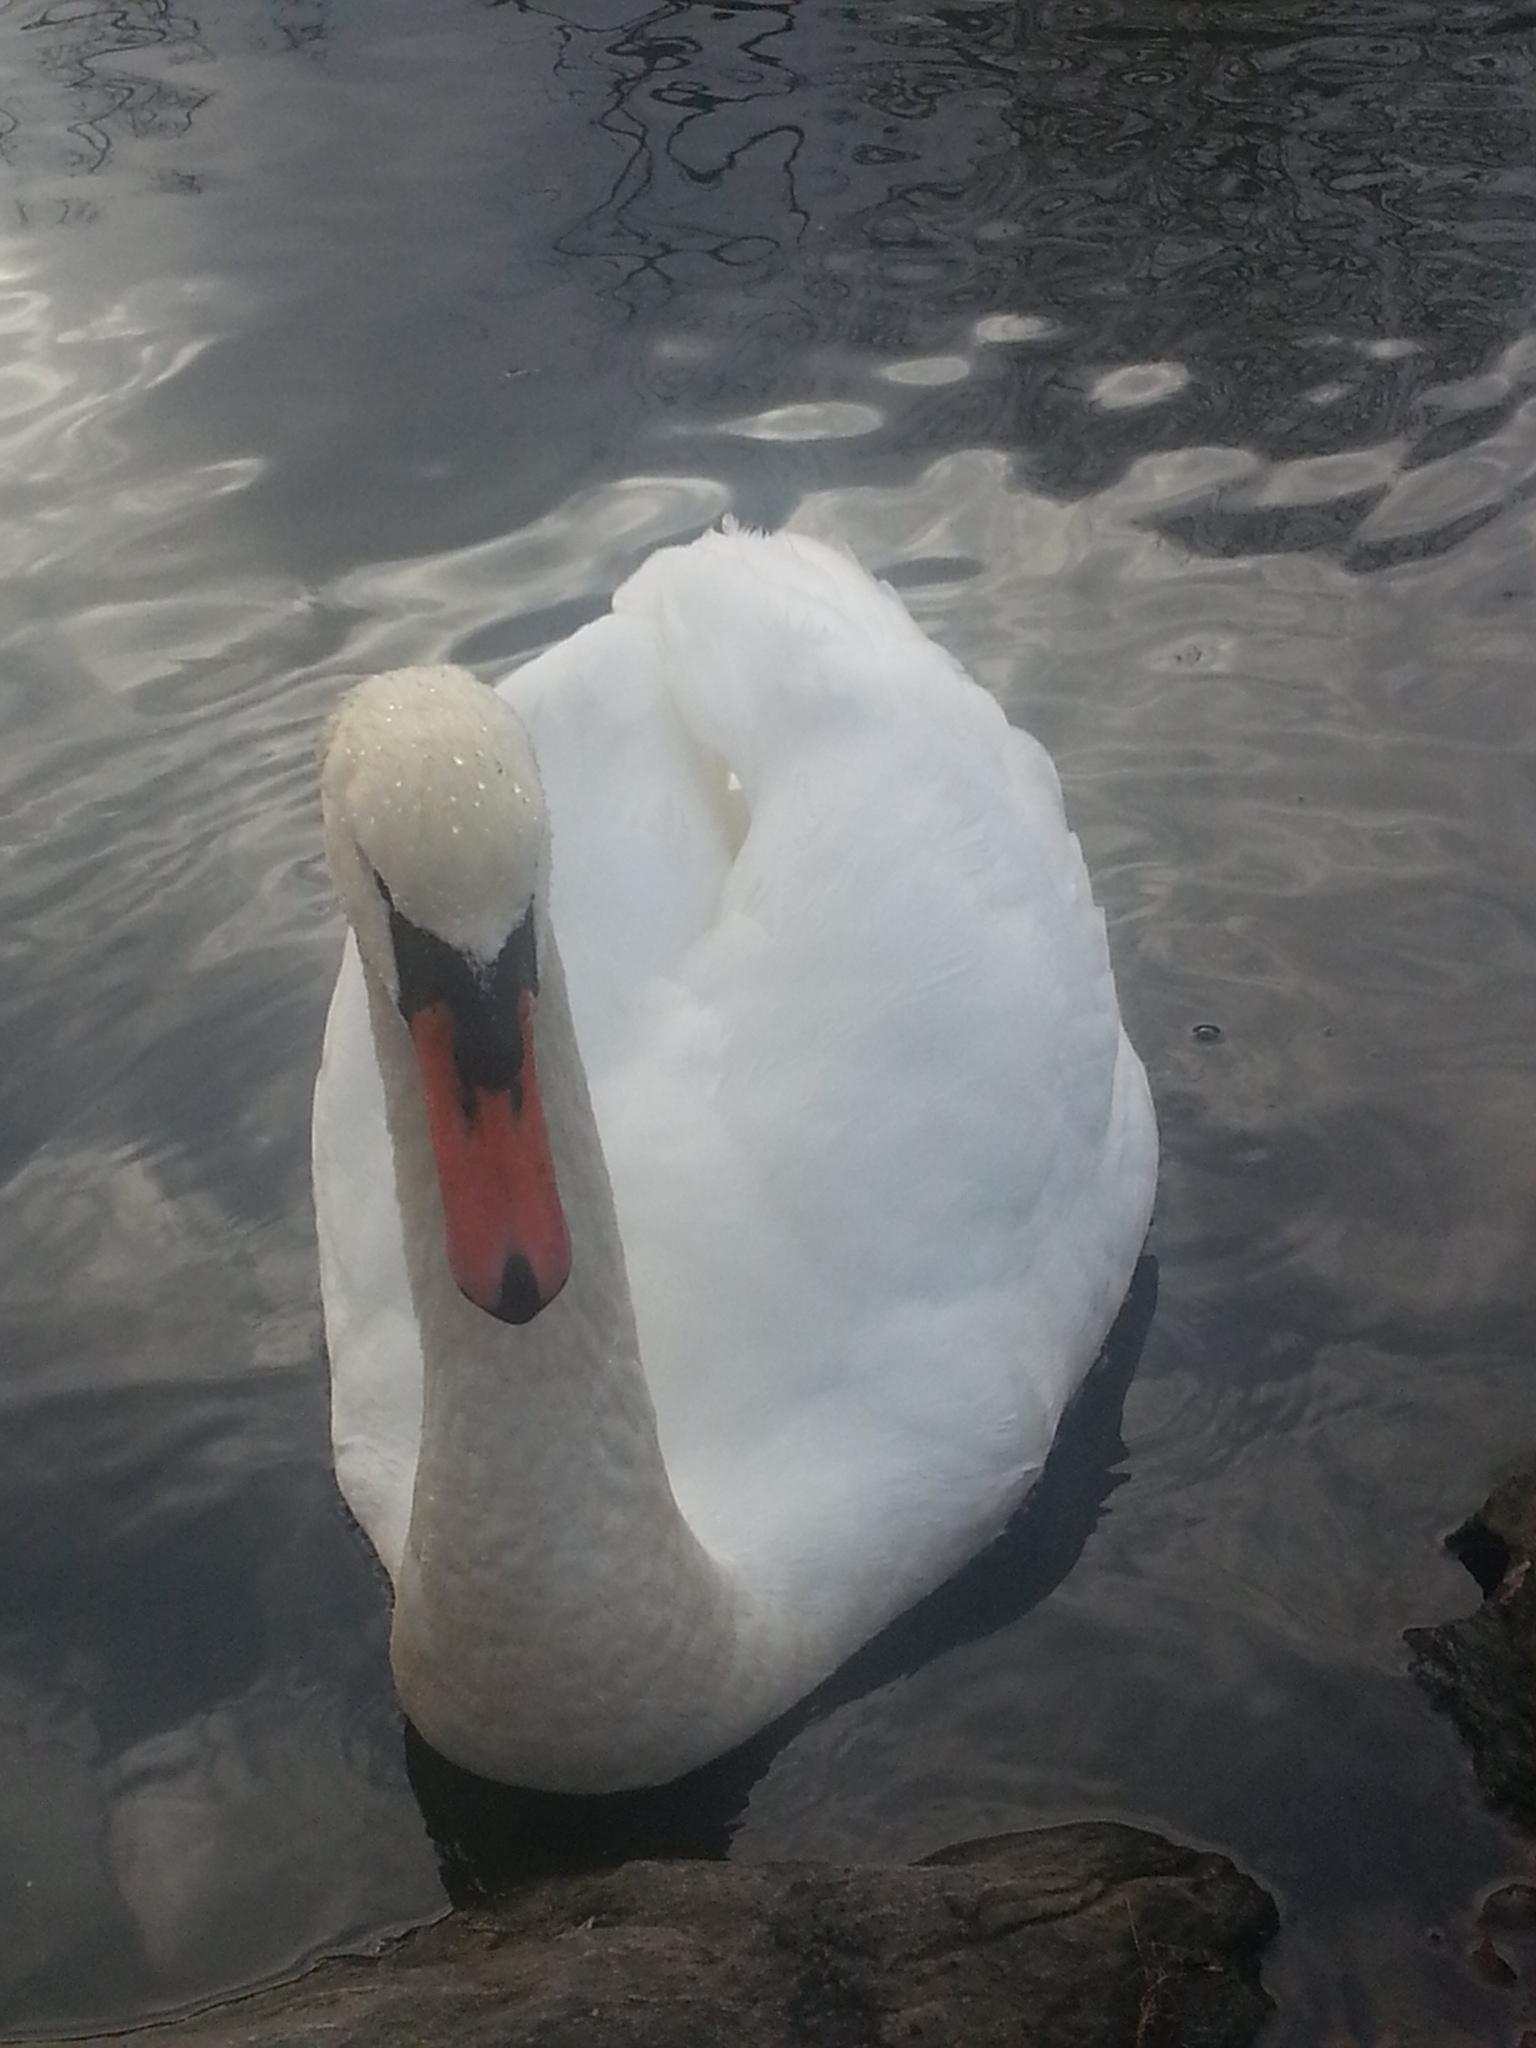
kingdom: Animalia
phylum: Chordata
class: Aves
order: Anseriformes
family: Anatidae
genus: Cygnus
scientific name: Cygnus olor
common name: Mute swan
